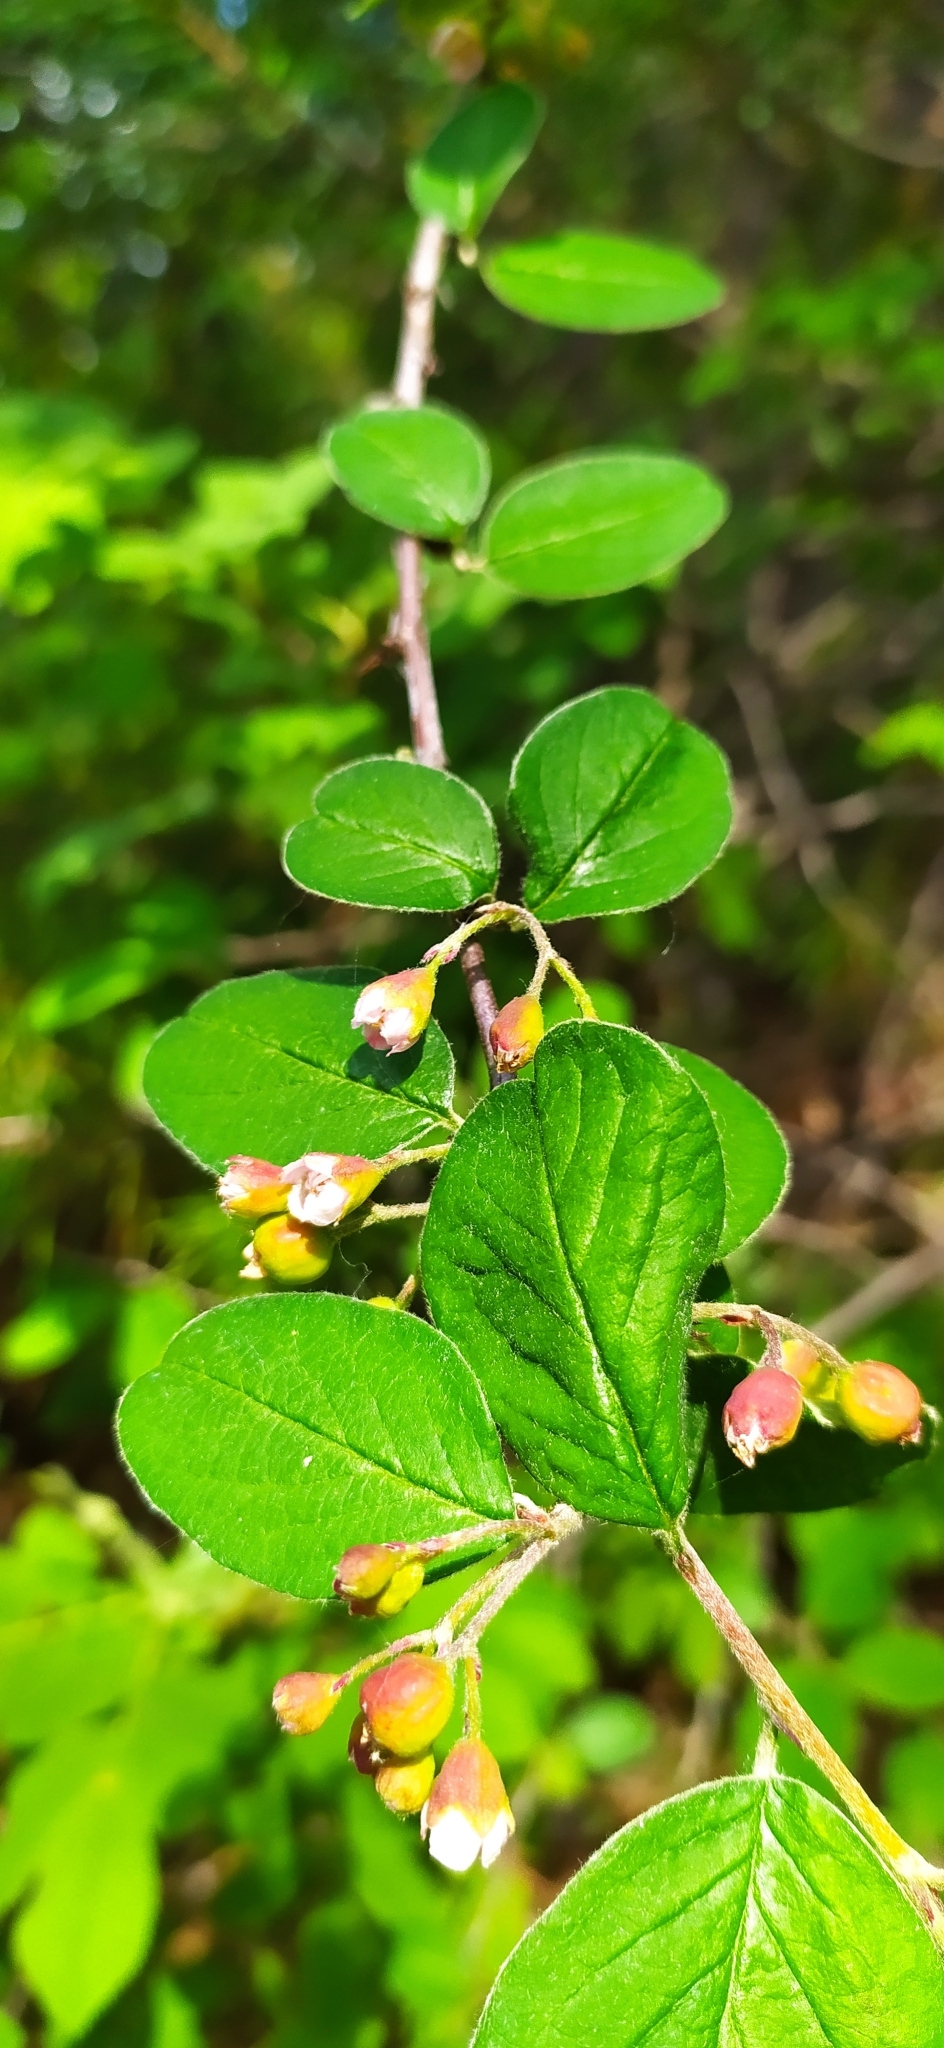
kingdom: Plantae
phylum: Tracheophyta
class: Magnoliopsida
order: Rosales
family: Rosaceae
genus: Cotoneaster
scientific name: Cotoneaster melanocarpus
